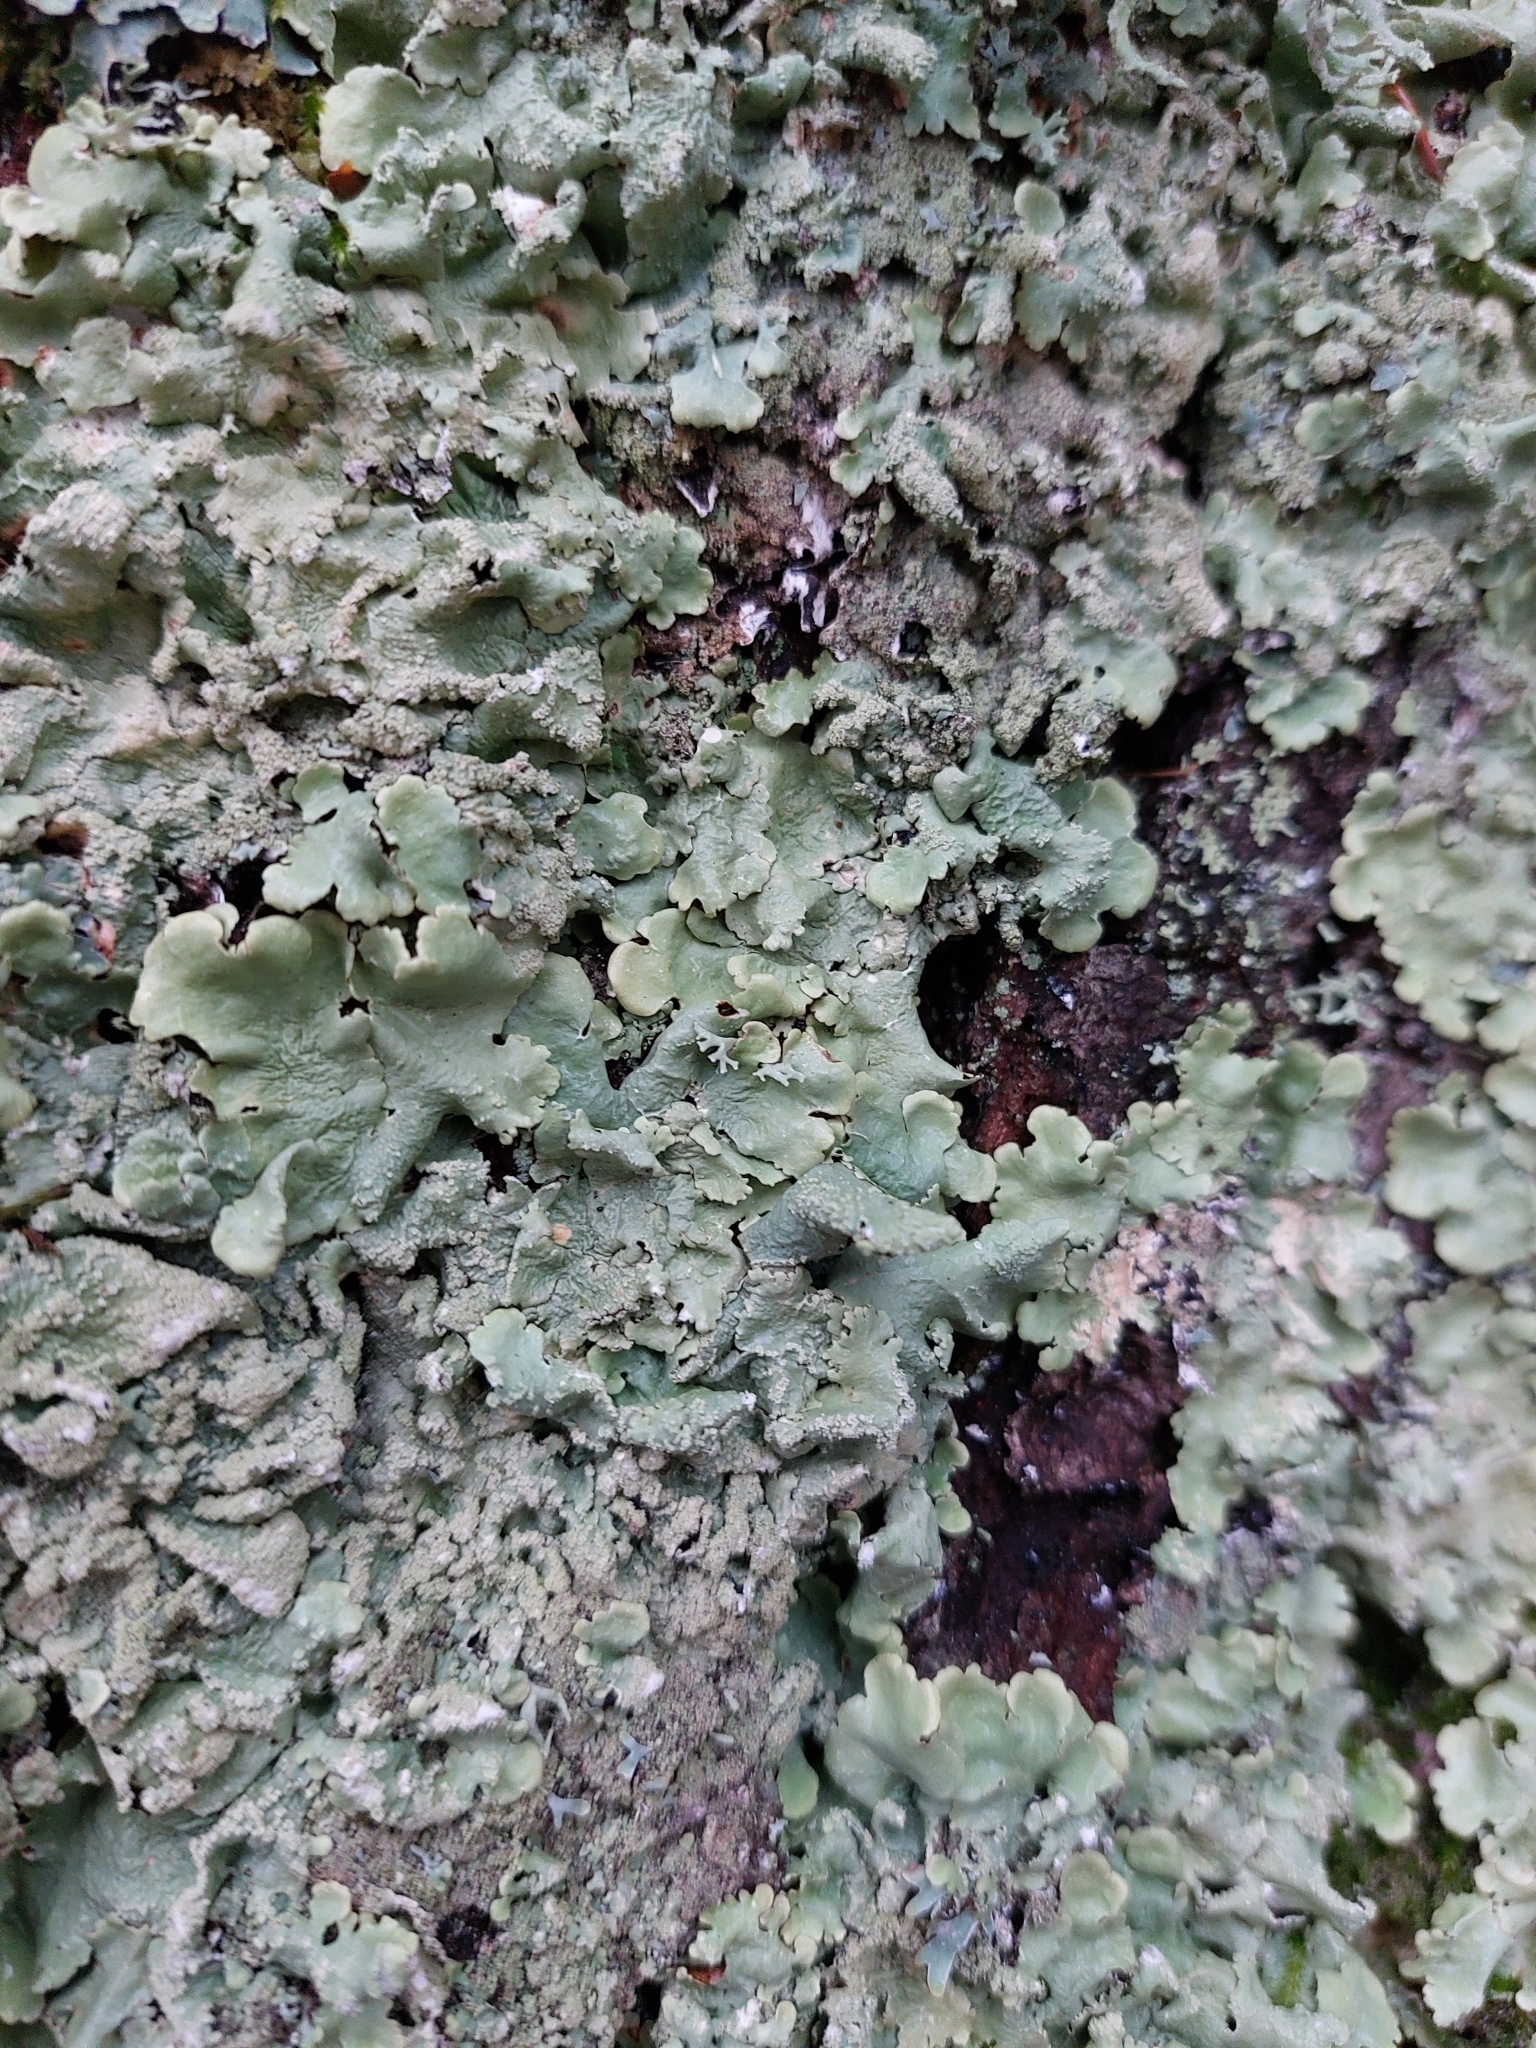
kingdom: Fungi
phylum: Ascomycota
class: Lecanoromycetes
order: Lecanorales
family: Parmeliaceae
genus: Flavoparmelia
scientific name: Flavoparmelia caperata
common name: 40-mile per hour lichen
